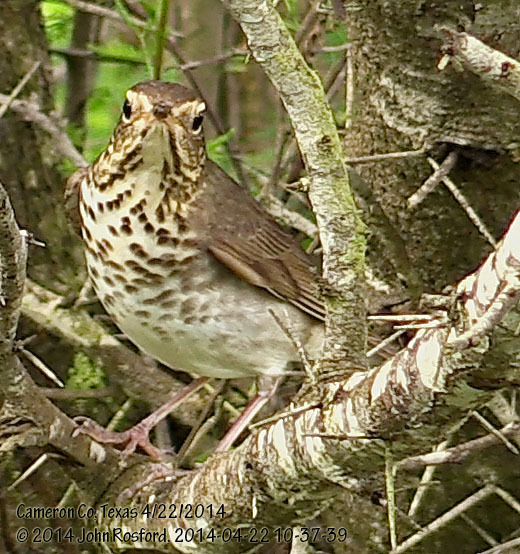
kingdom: Animalia
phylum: Chordata
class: Aves
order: Passeriformes
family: Turdidae
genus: Catharus
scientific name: Catharus ustulatus
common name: Swainson's thrush
